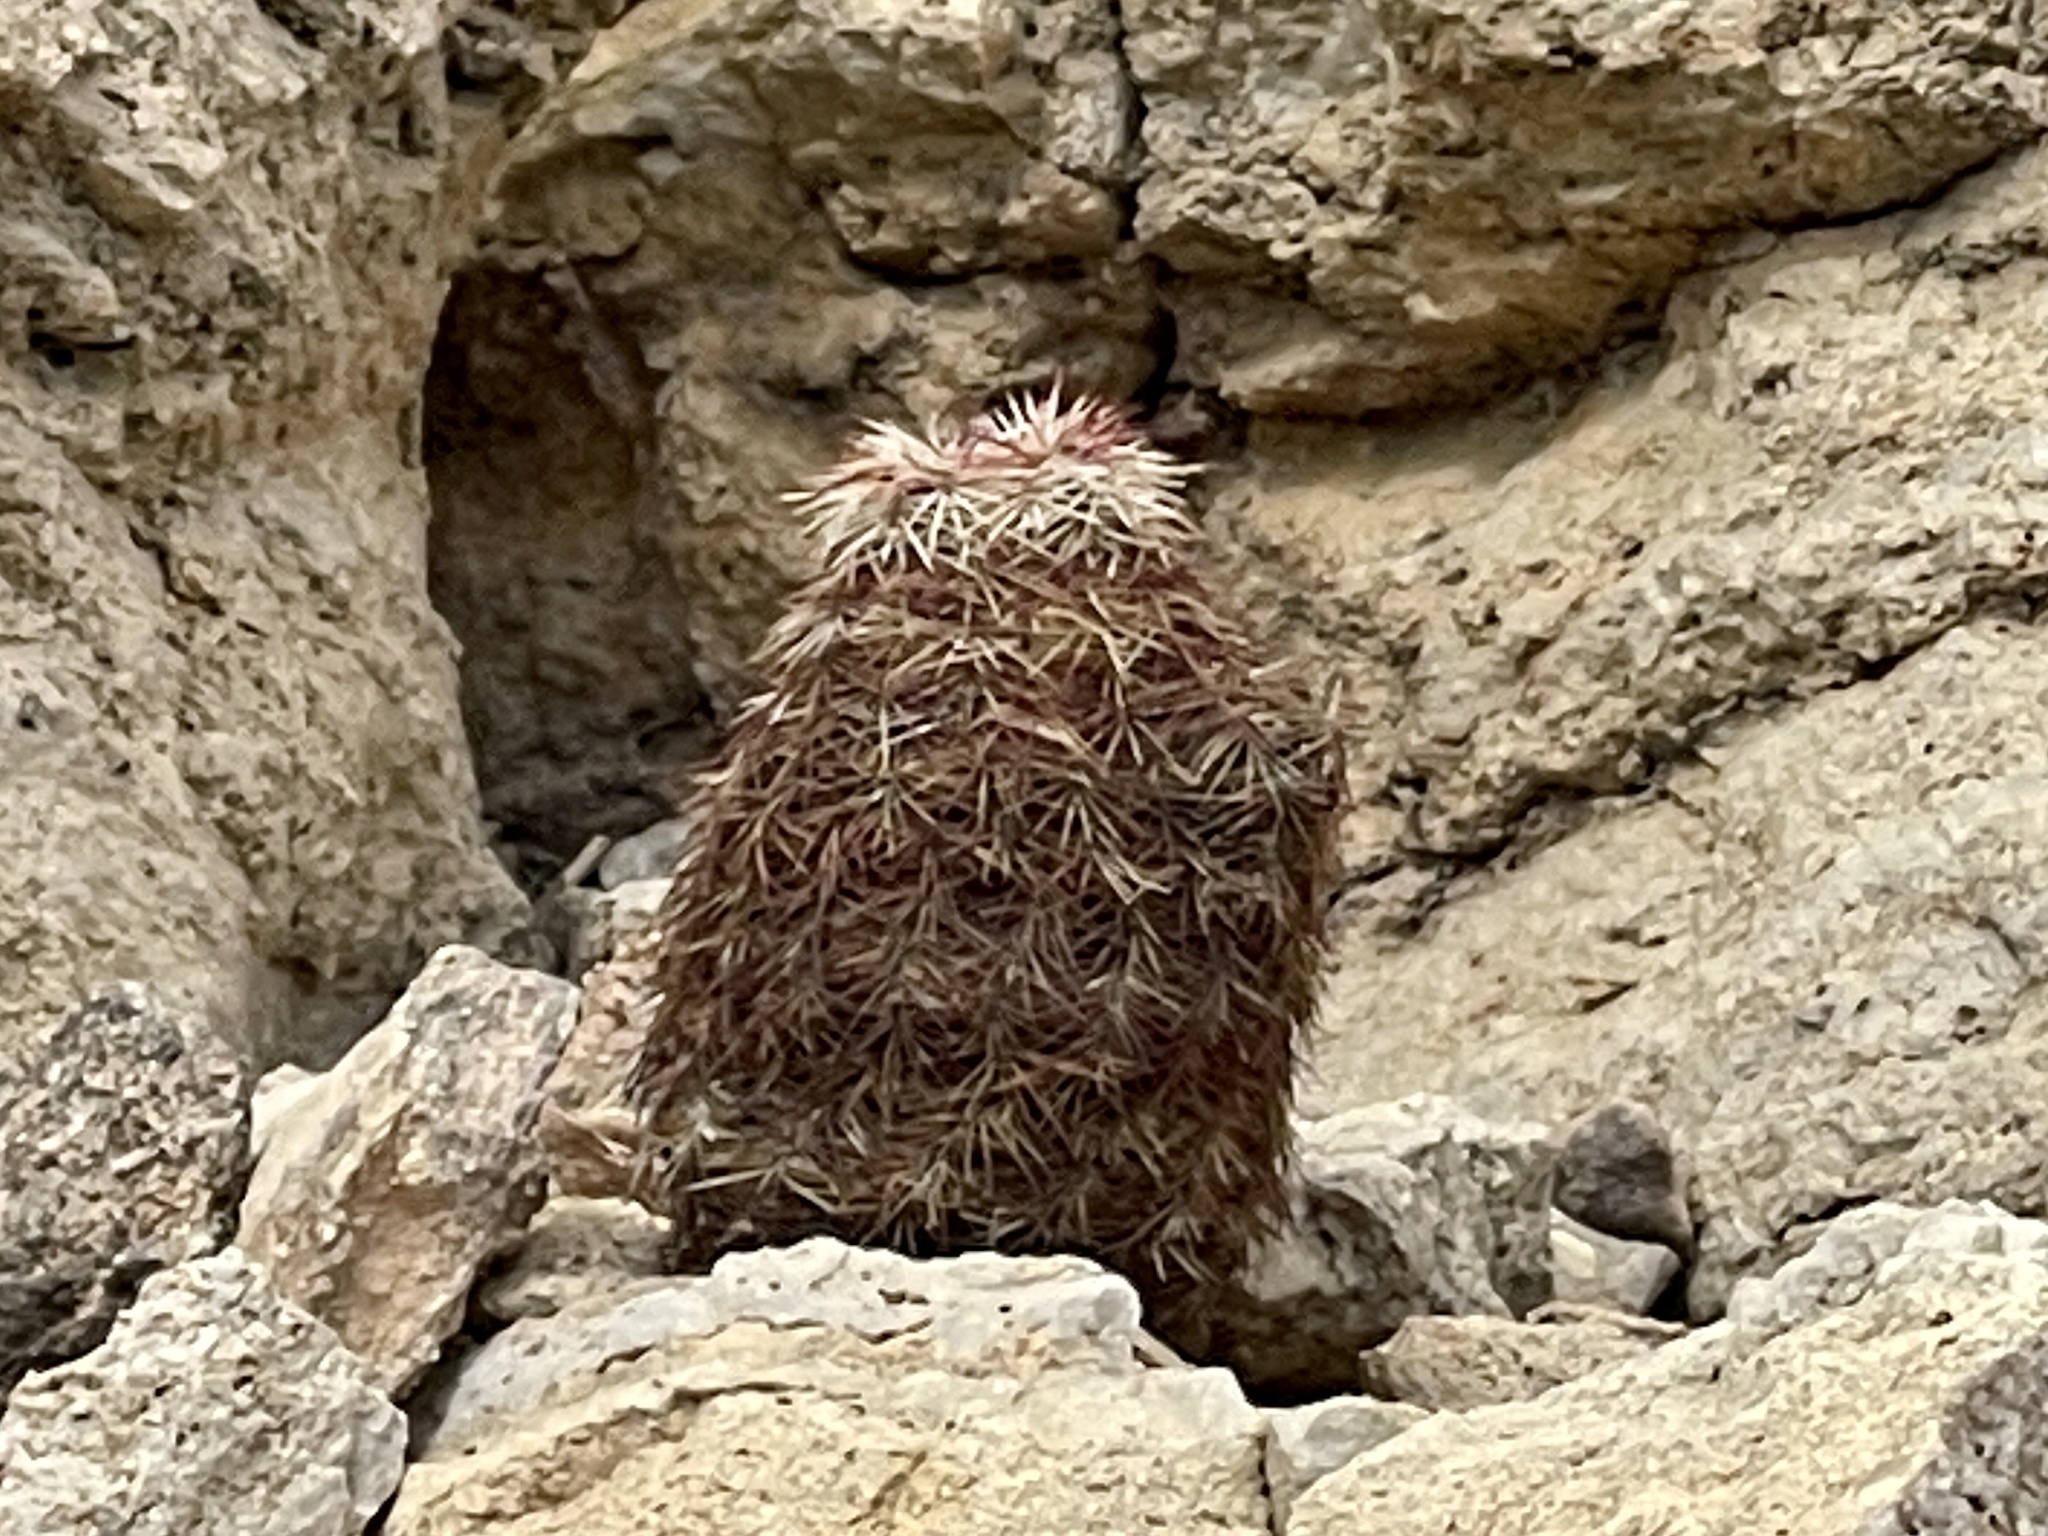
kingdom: Plantae
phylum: Tracheophyta
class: Magnoliopsida
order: Caryophyllales
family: Cactaceae
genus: Echinocereus
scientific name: Echinocereus viridiflorus
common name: Nylon hedgehog cactus
